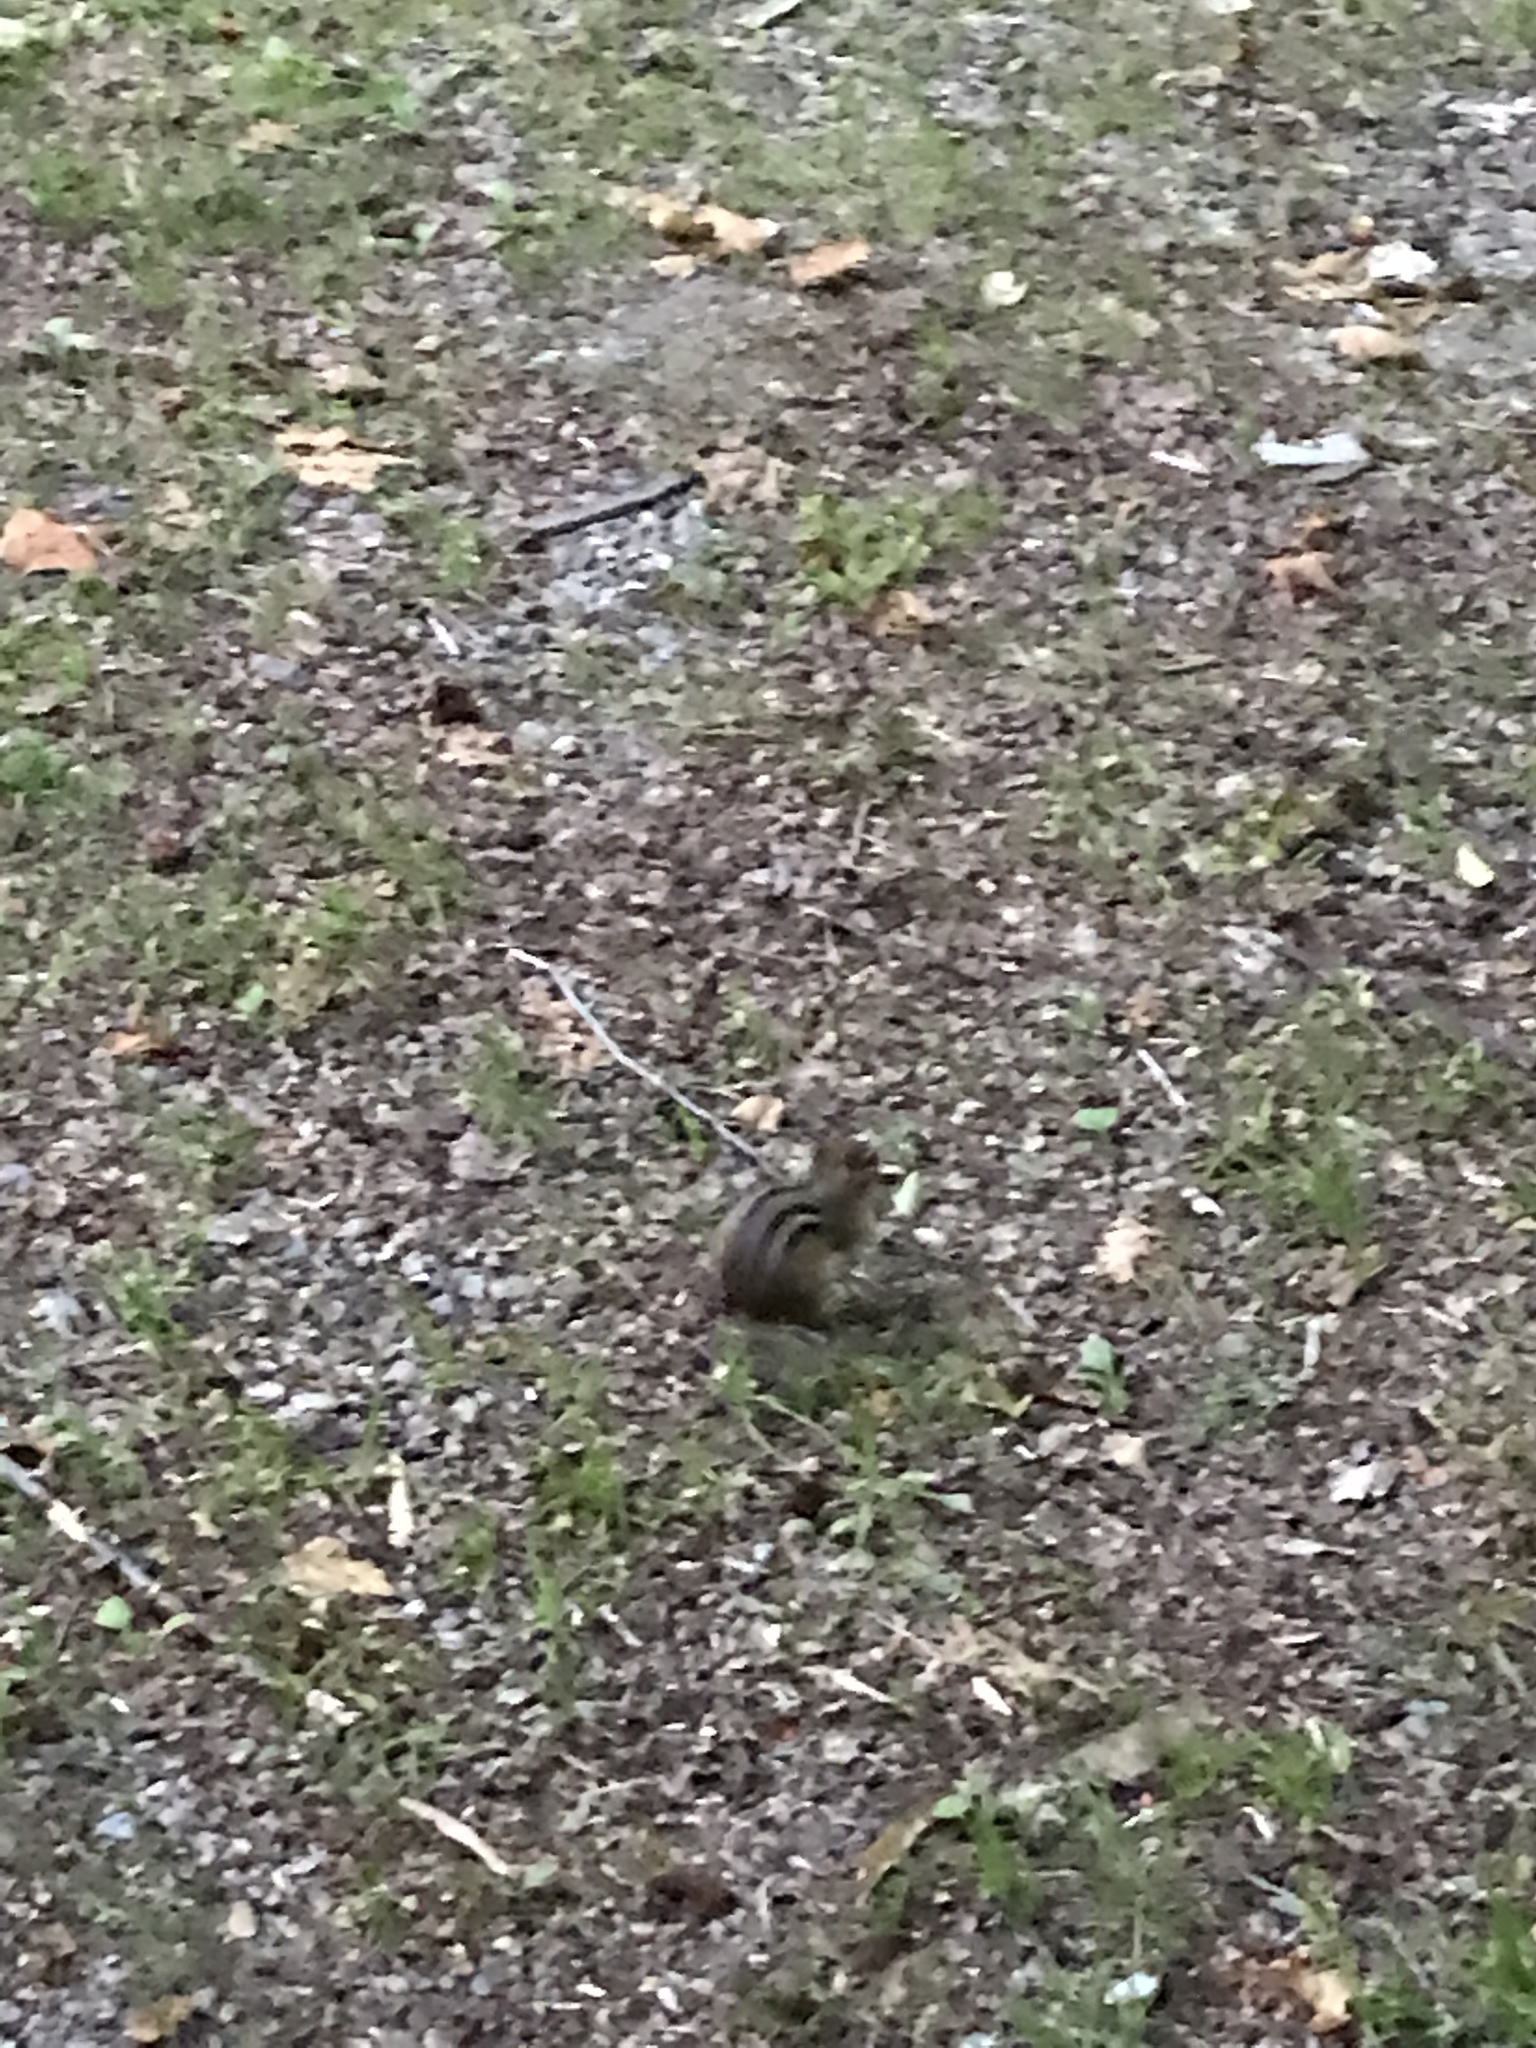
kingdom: Animalia
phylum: Chordata
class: Mammalia
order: Rodentia
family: Sciuridae
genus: Tamias
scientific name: Tamias striatus
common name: Eastern chipmunk
